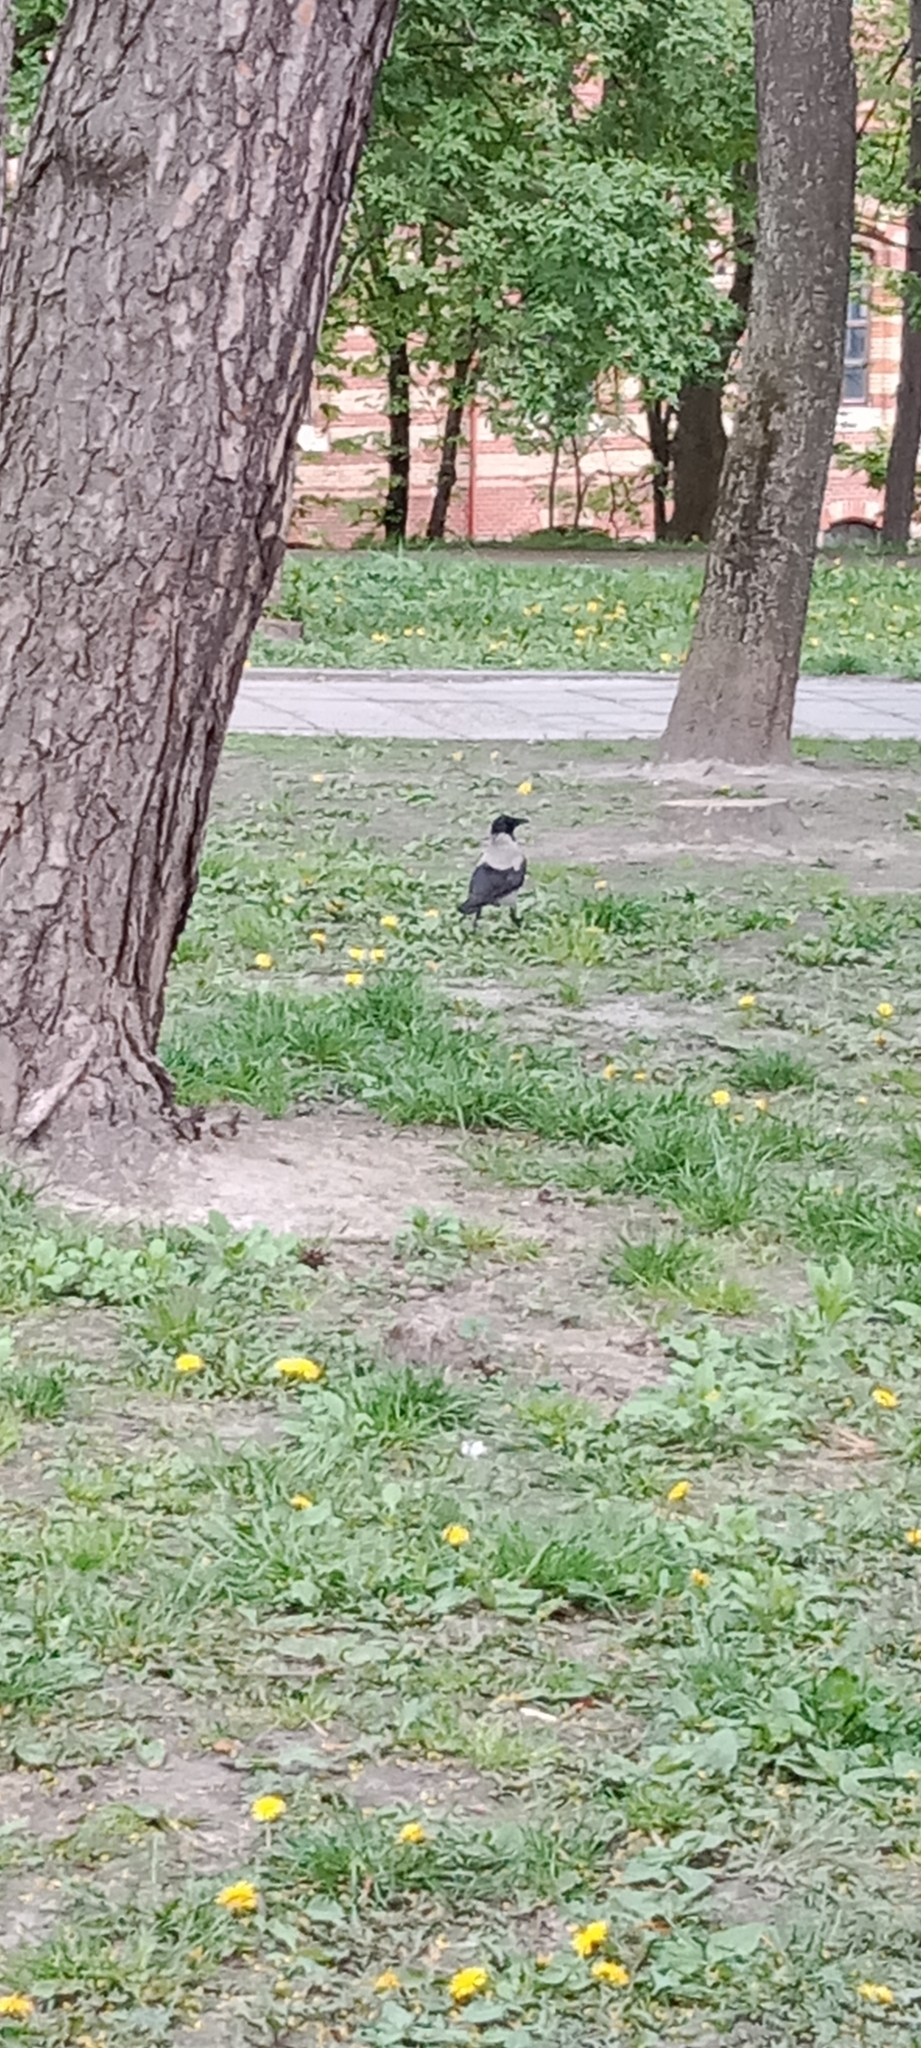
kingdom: Animalia
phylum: Chordata
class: Aves
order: Passeriformes
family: Corvidae
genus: Corvus
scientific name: Corvus cornix
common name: Hooded crow
